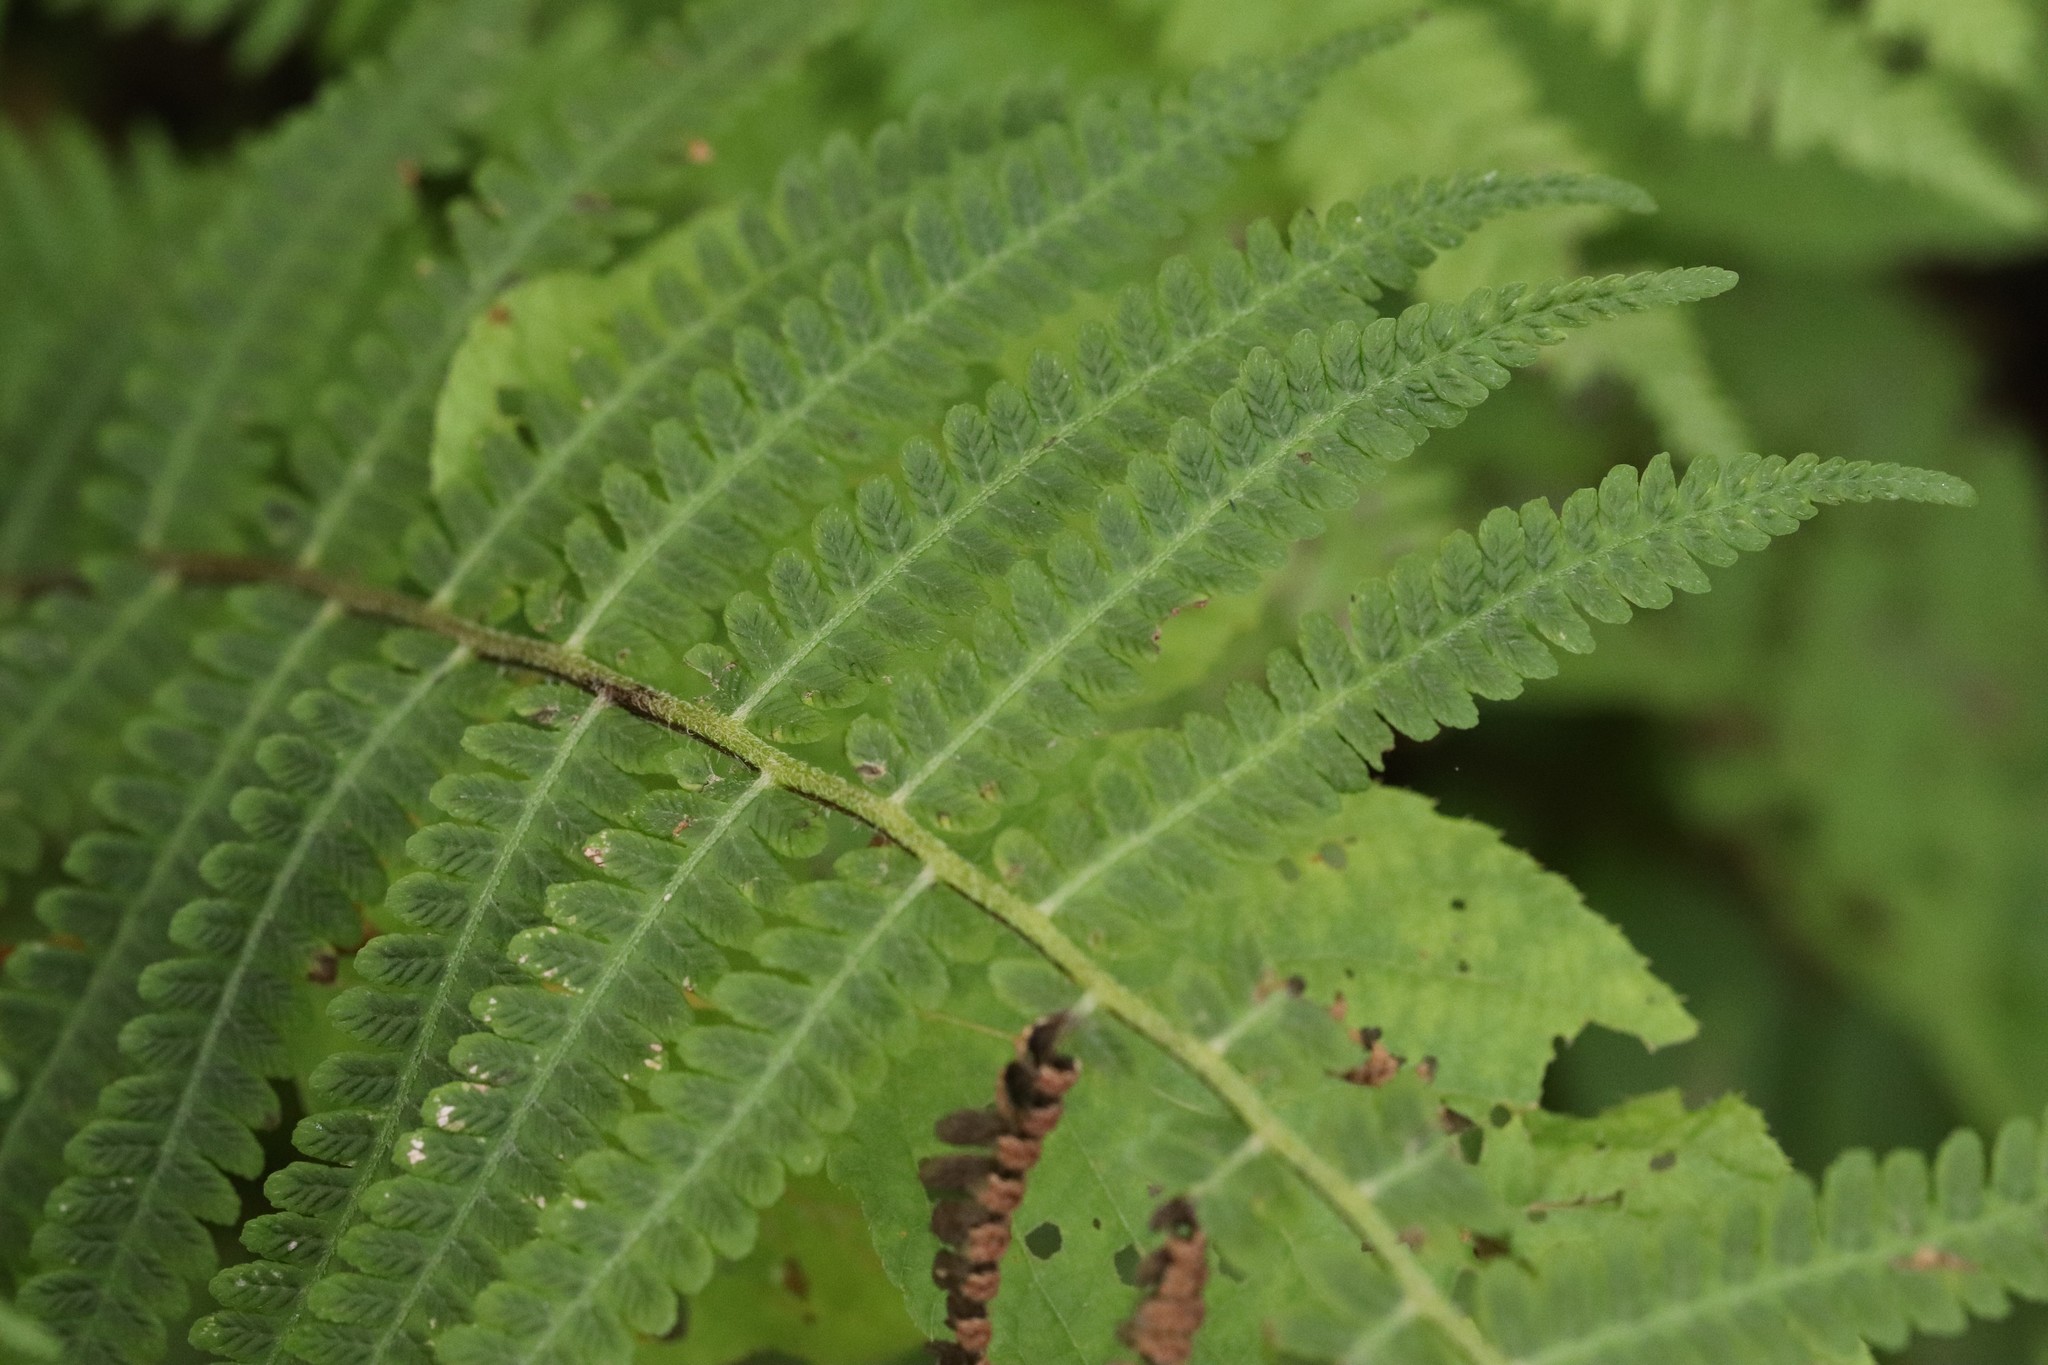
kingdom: Plantae
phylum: Tracheophyta
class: Polypodiopsida
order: Polypodiales
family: Athyriaceae
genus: Deparia
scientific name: Deparia pycnosora
